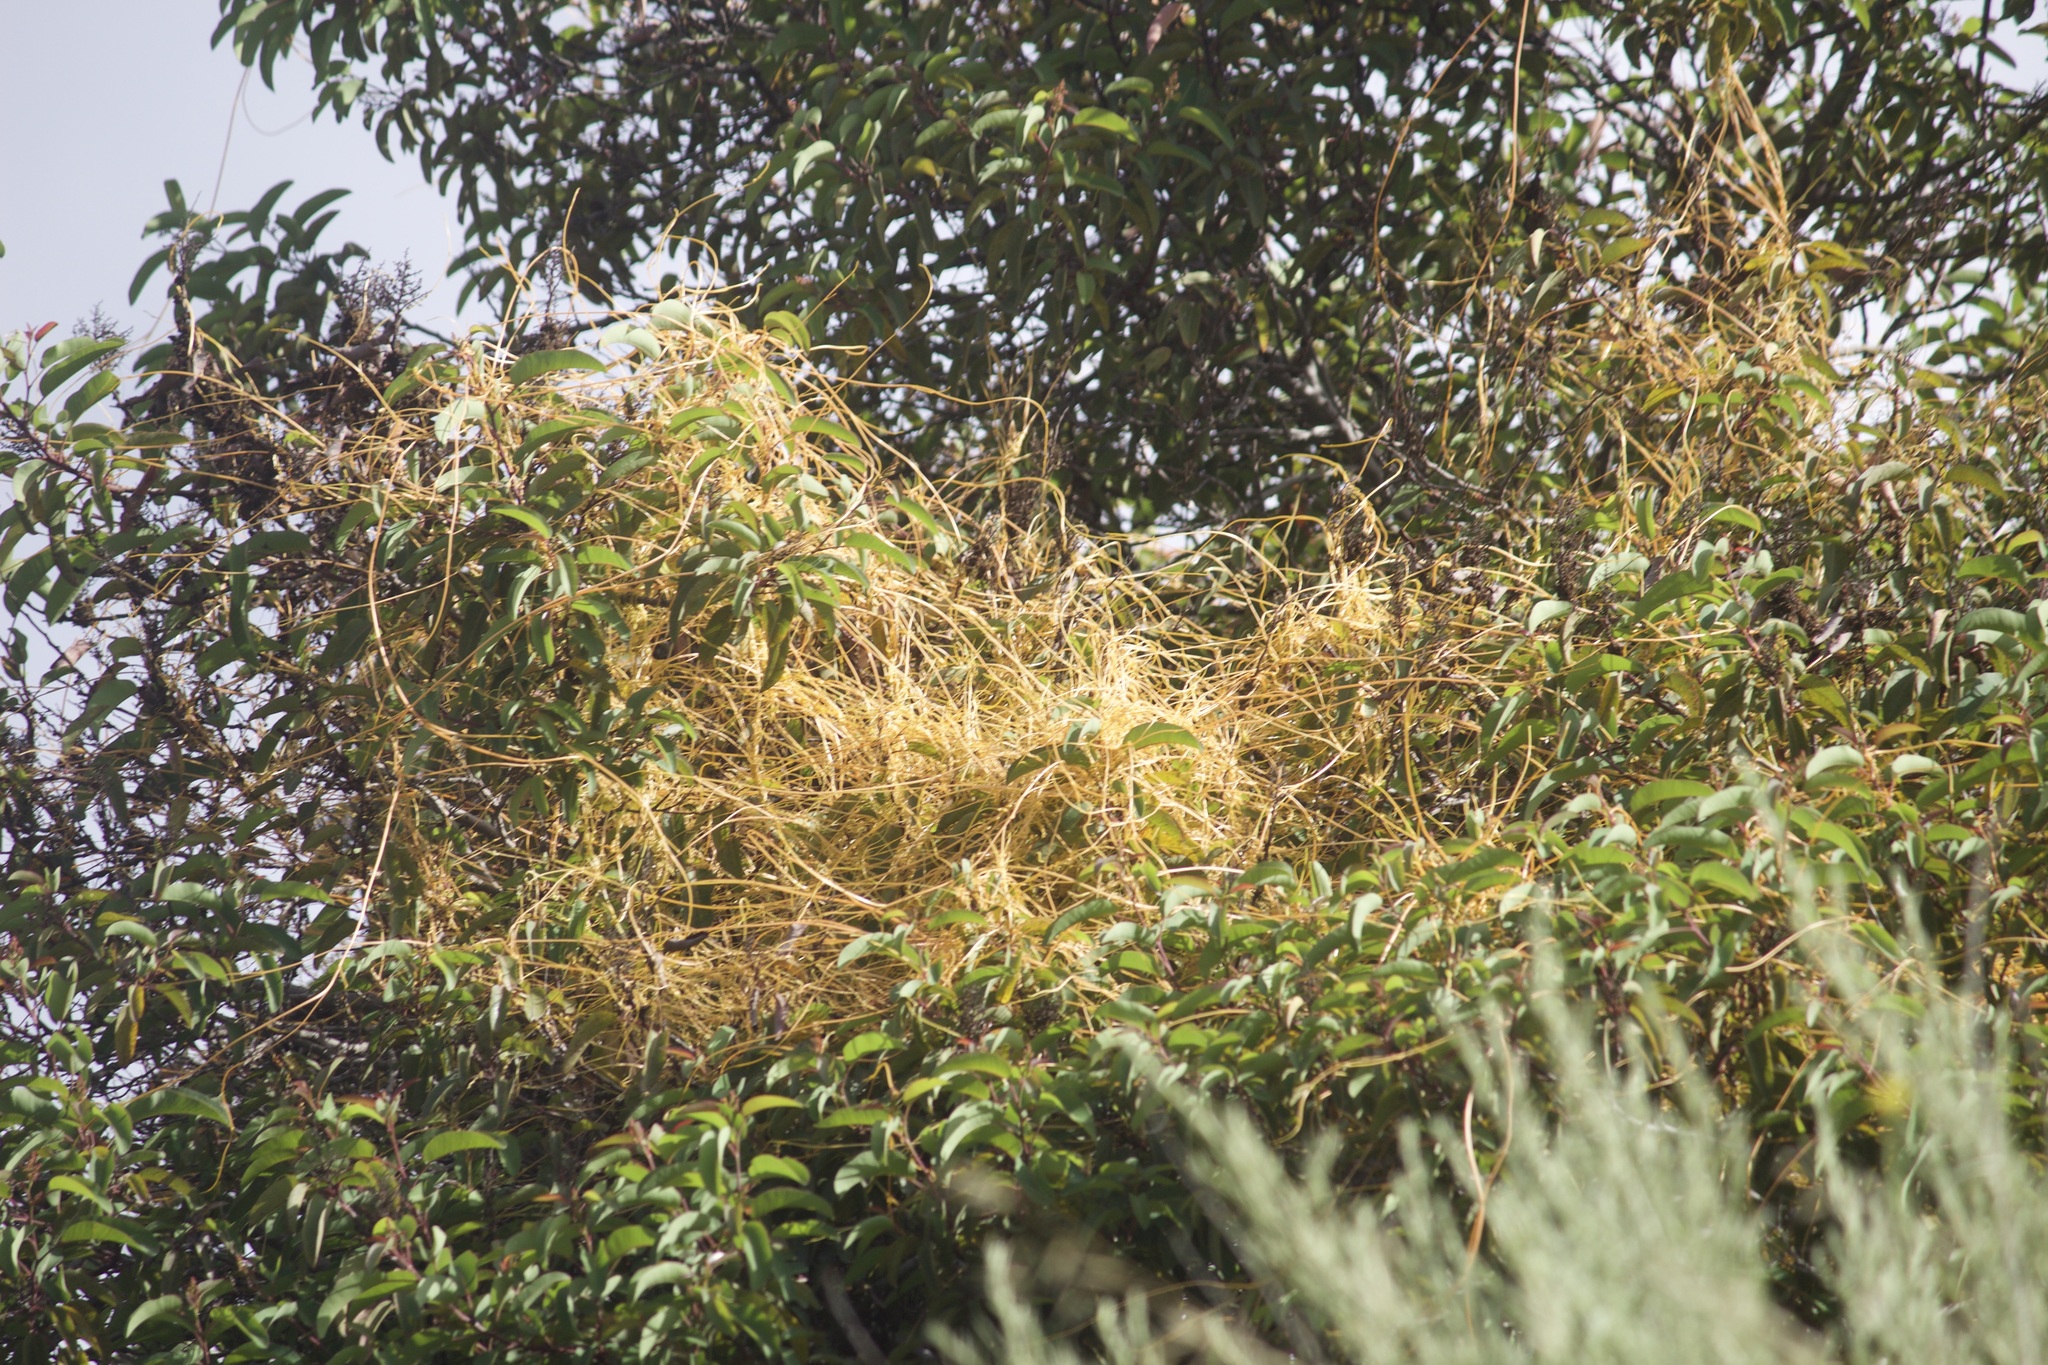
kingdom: Plantae
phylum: Tracheophyta
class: Magnoliopsida
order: Solanales
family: Convolvulaceae
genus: Cuscuta
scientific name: Cuscuta subinclusa
